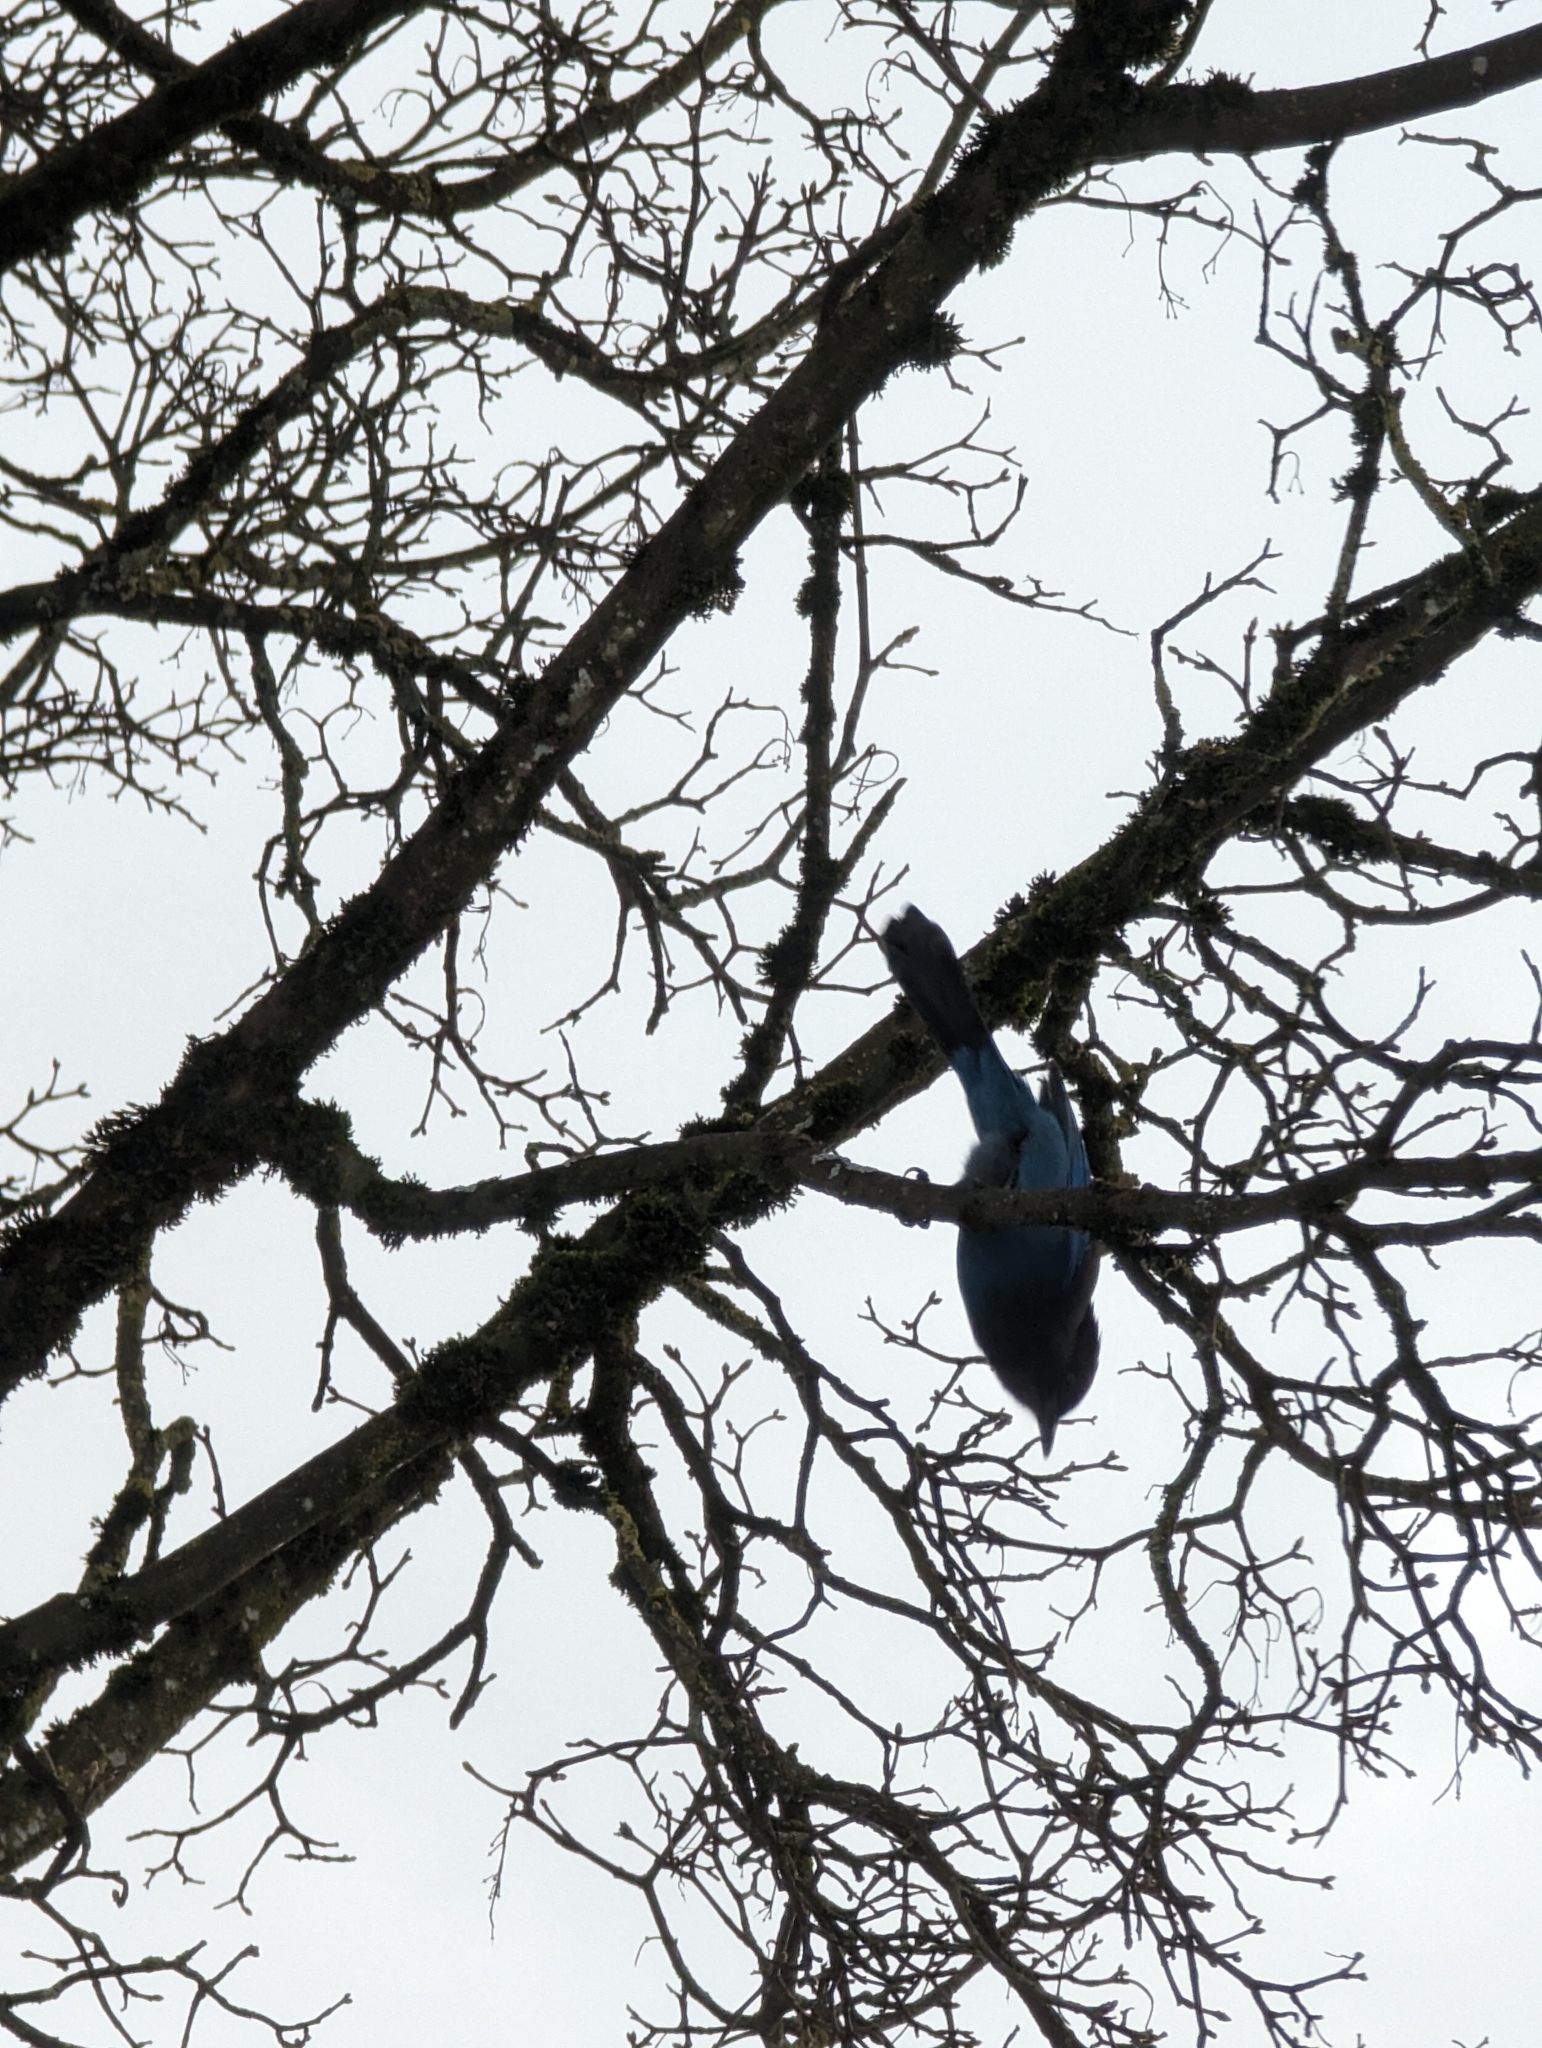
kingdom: Animalia
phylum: Chordata
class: Aves
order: Passeriformes
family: Corvidae
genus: Cyanocitta
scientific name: Cyanocitta stelleri
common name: Steller's jay
